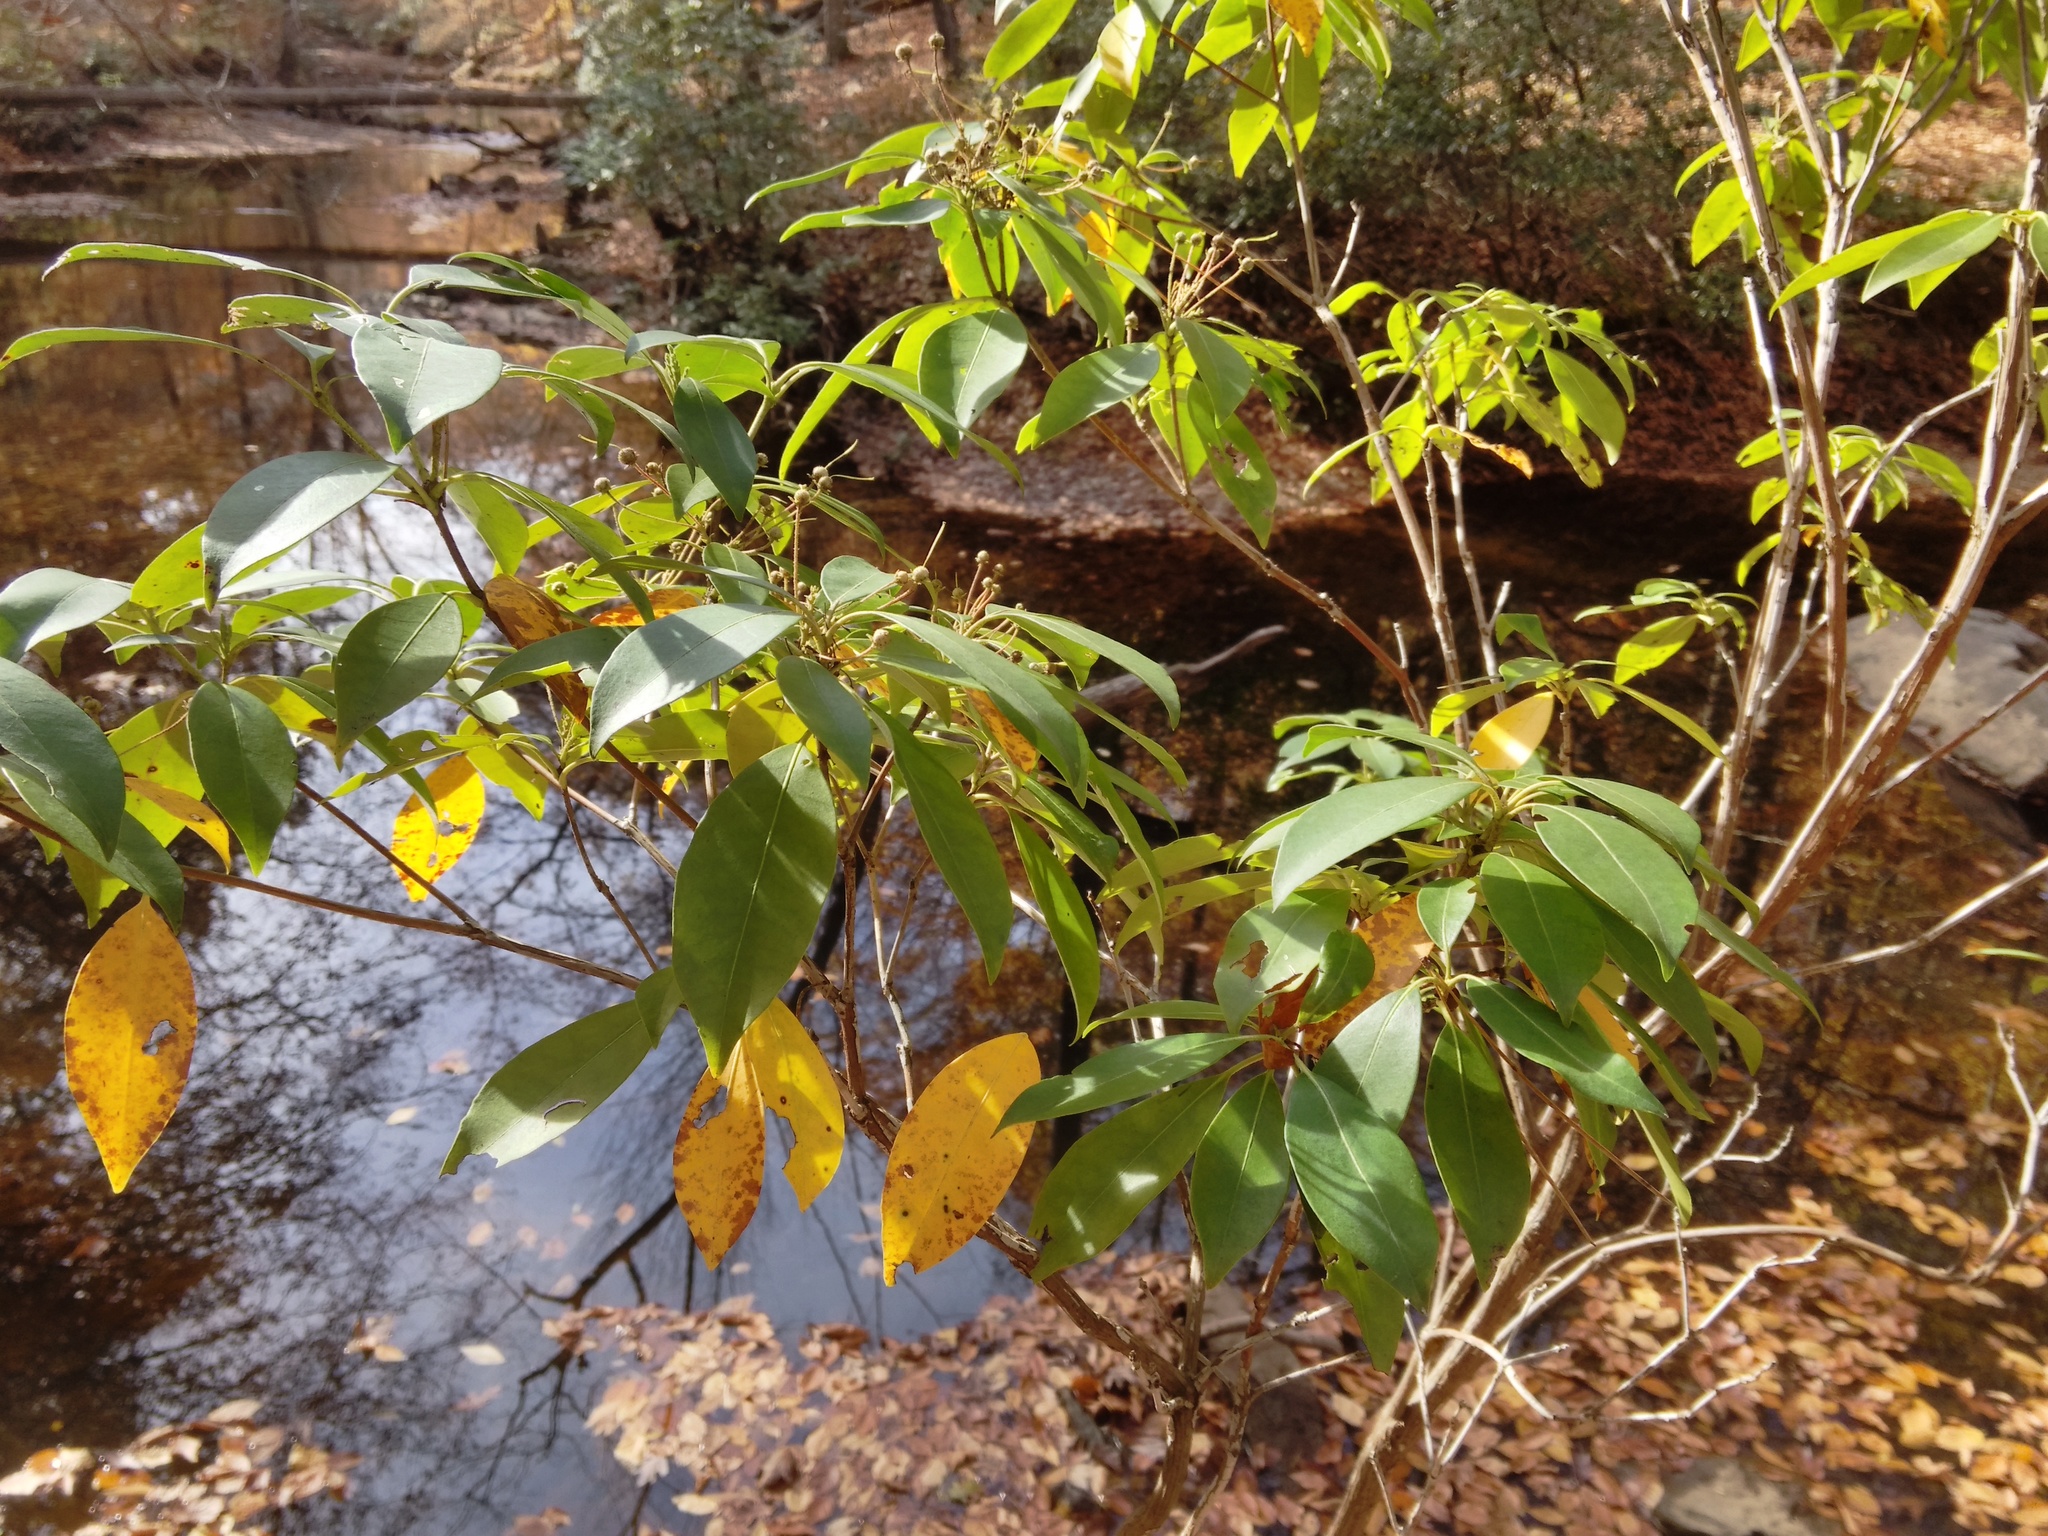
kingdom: Plantae
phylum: Tracheophyta
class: Magnoliopsida
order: Ericales
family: Ericaceae
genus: Kalmia
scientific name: Kalmia latifolia
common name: Mountain-laurel
